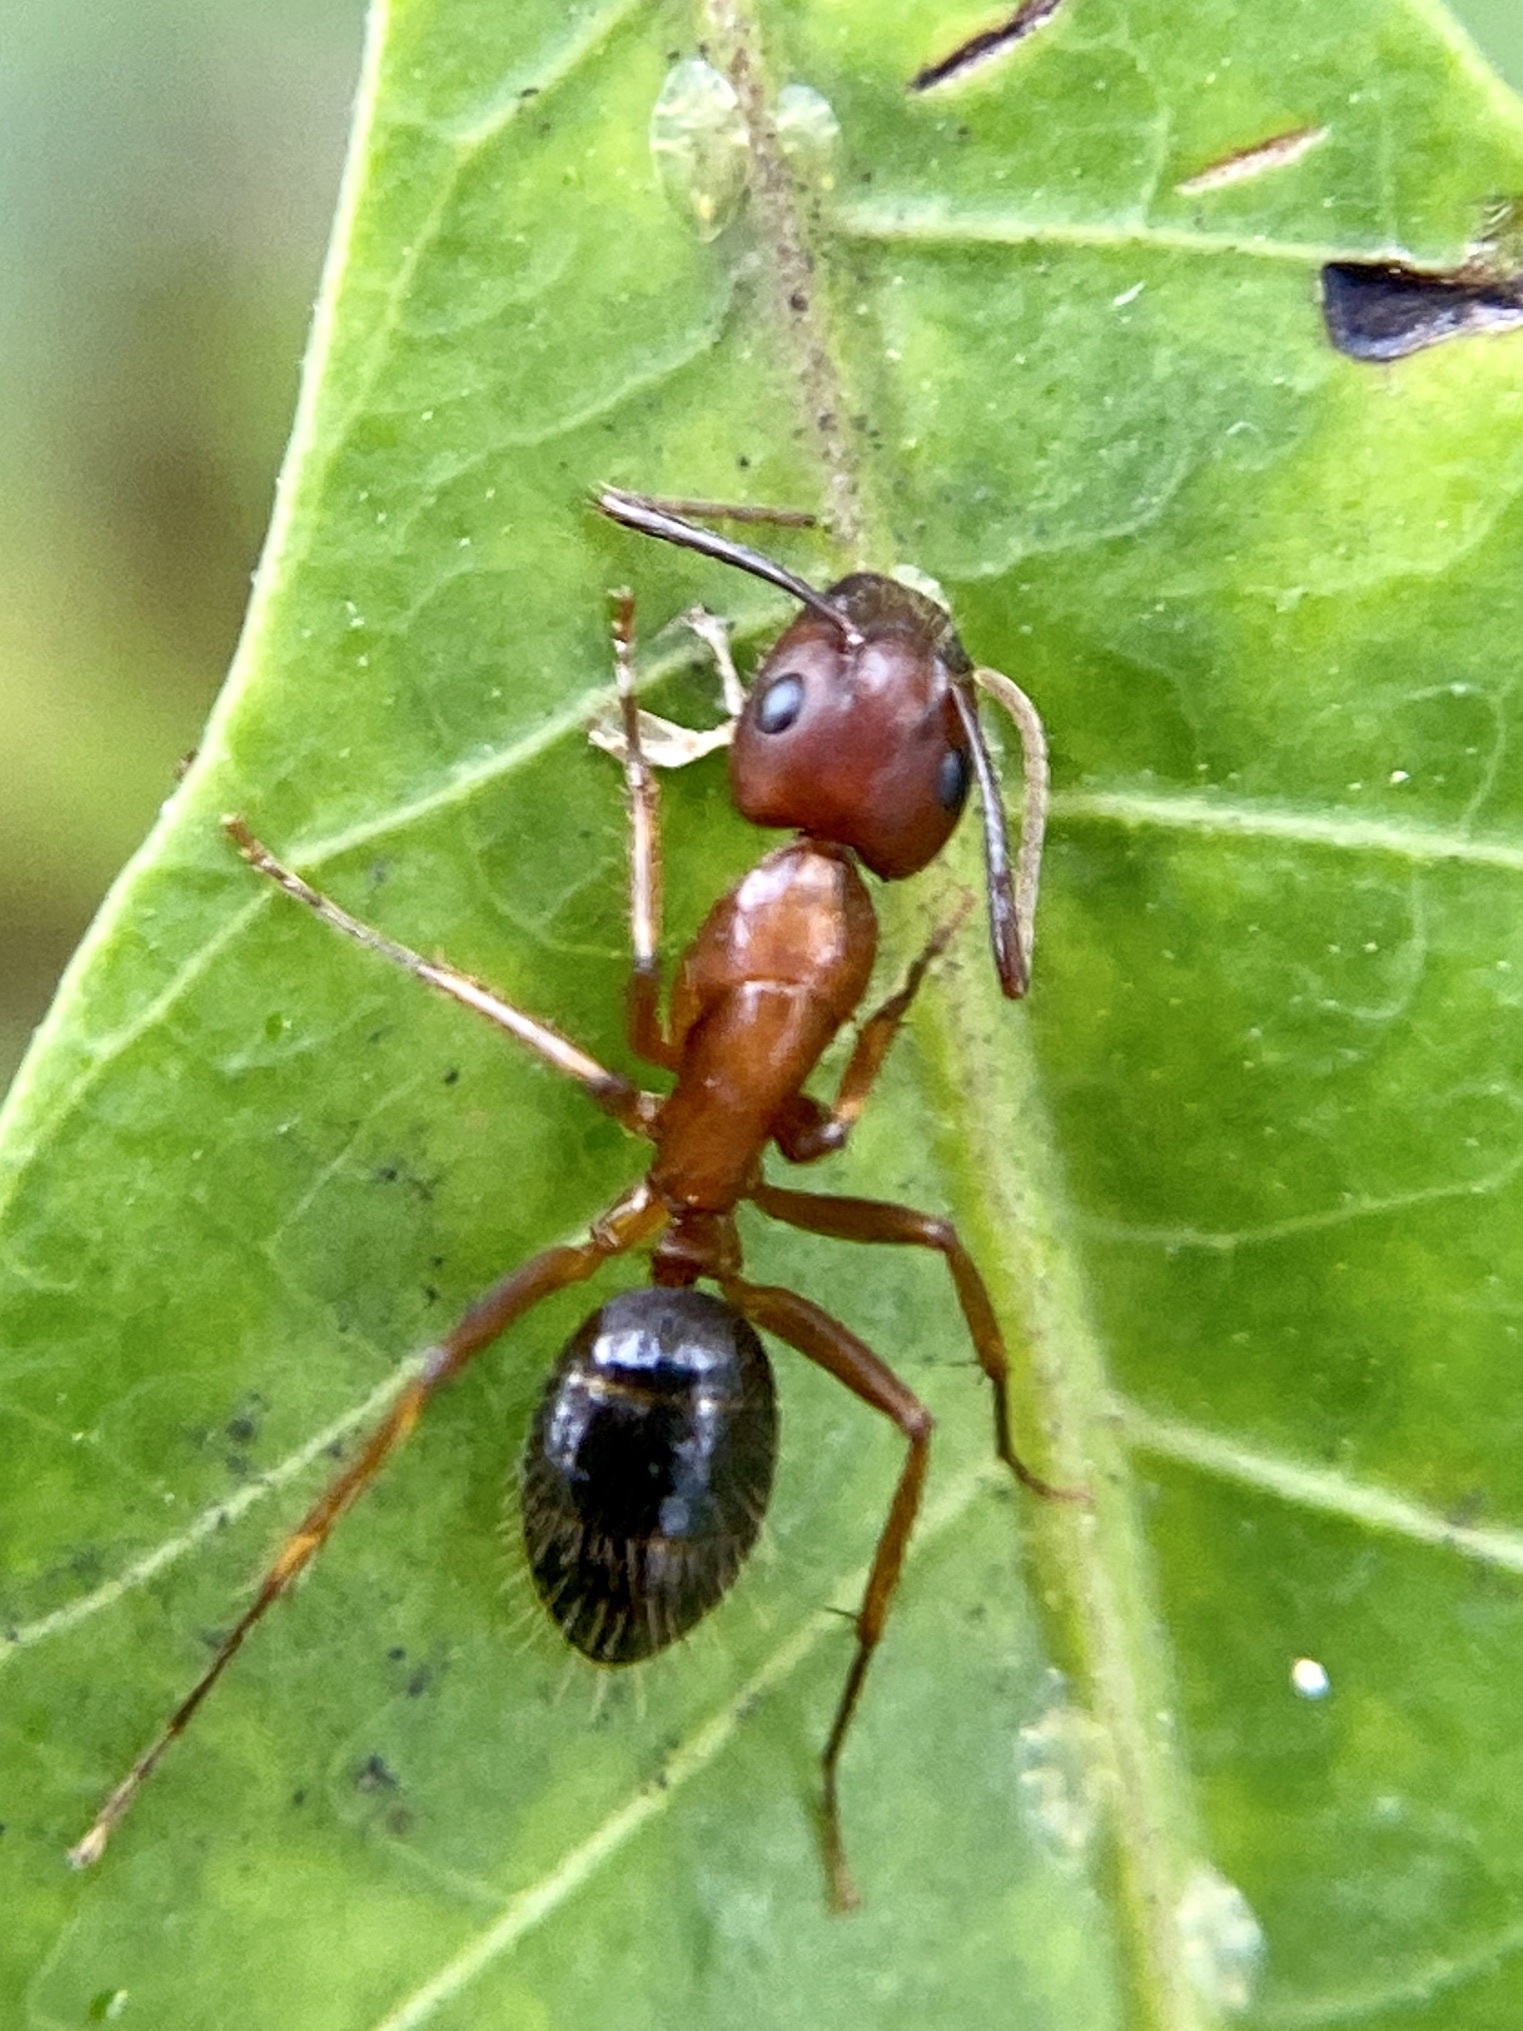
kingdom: Animalia
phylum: Arthropoda
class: Insecta
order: Hymenoptera
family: Formicidae
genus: Camponotus
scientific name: Camponotus floridanus
